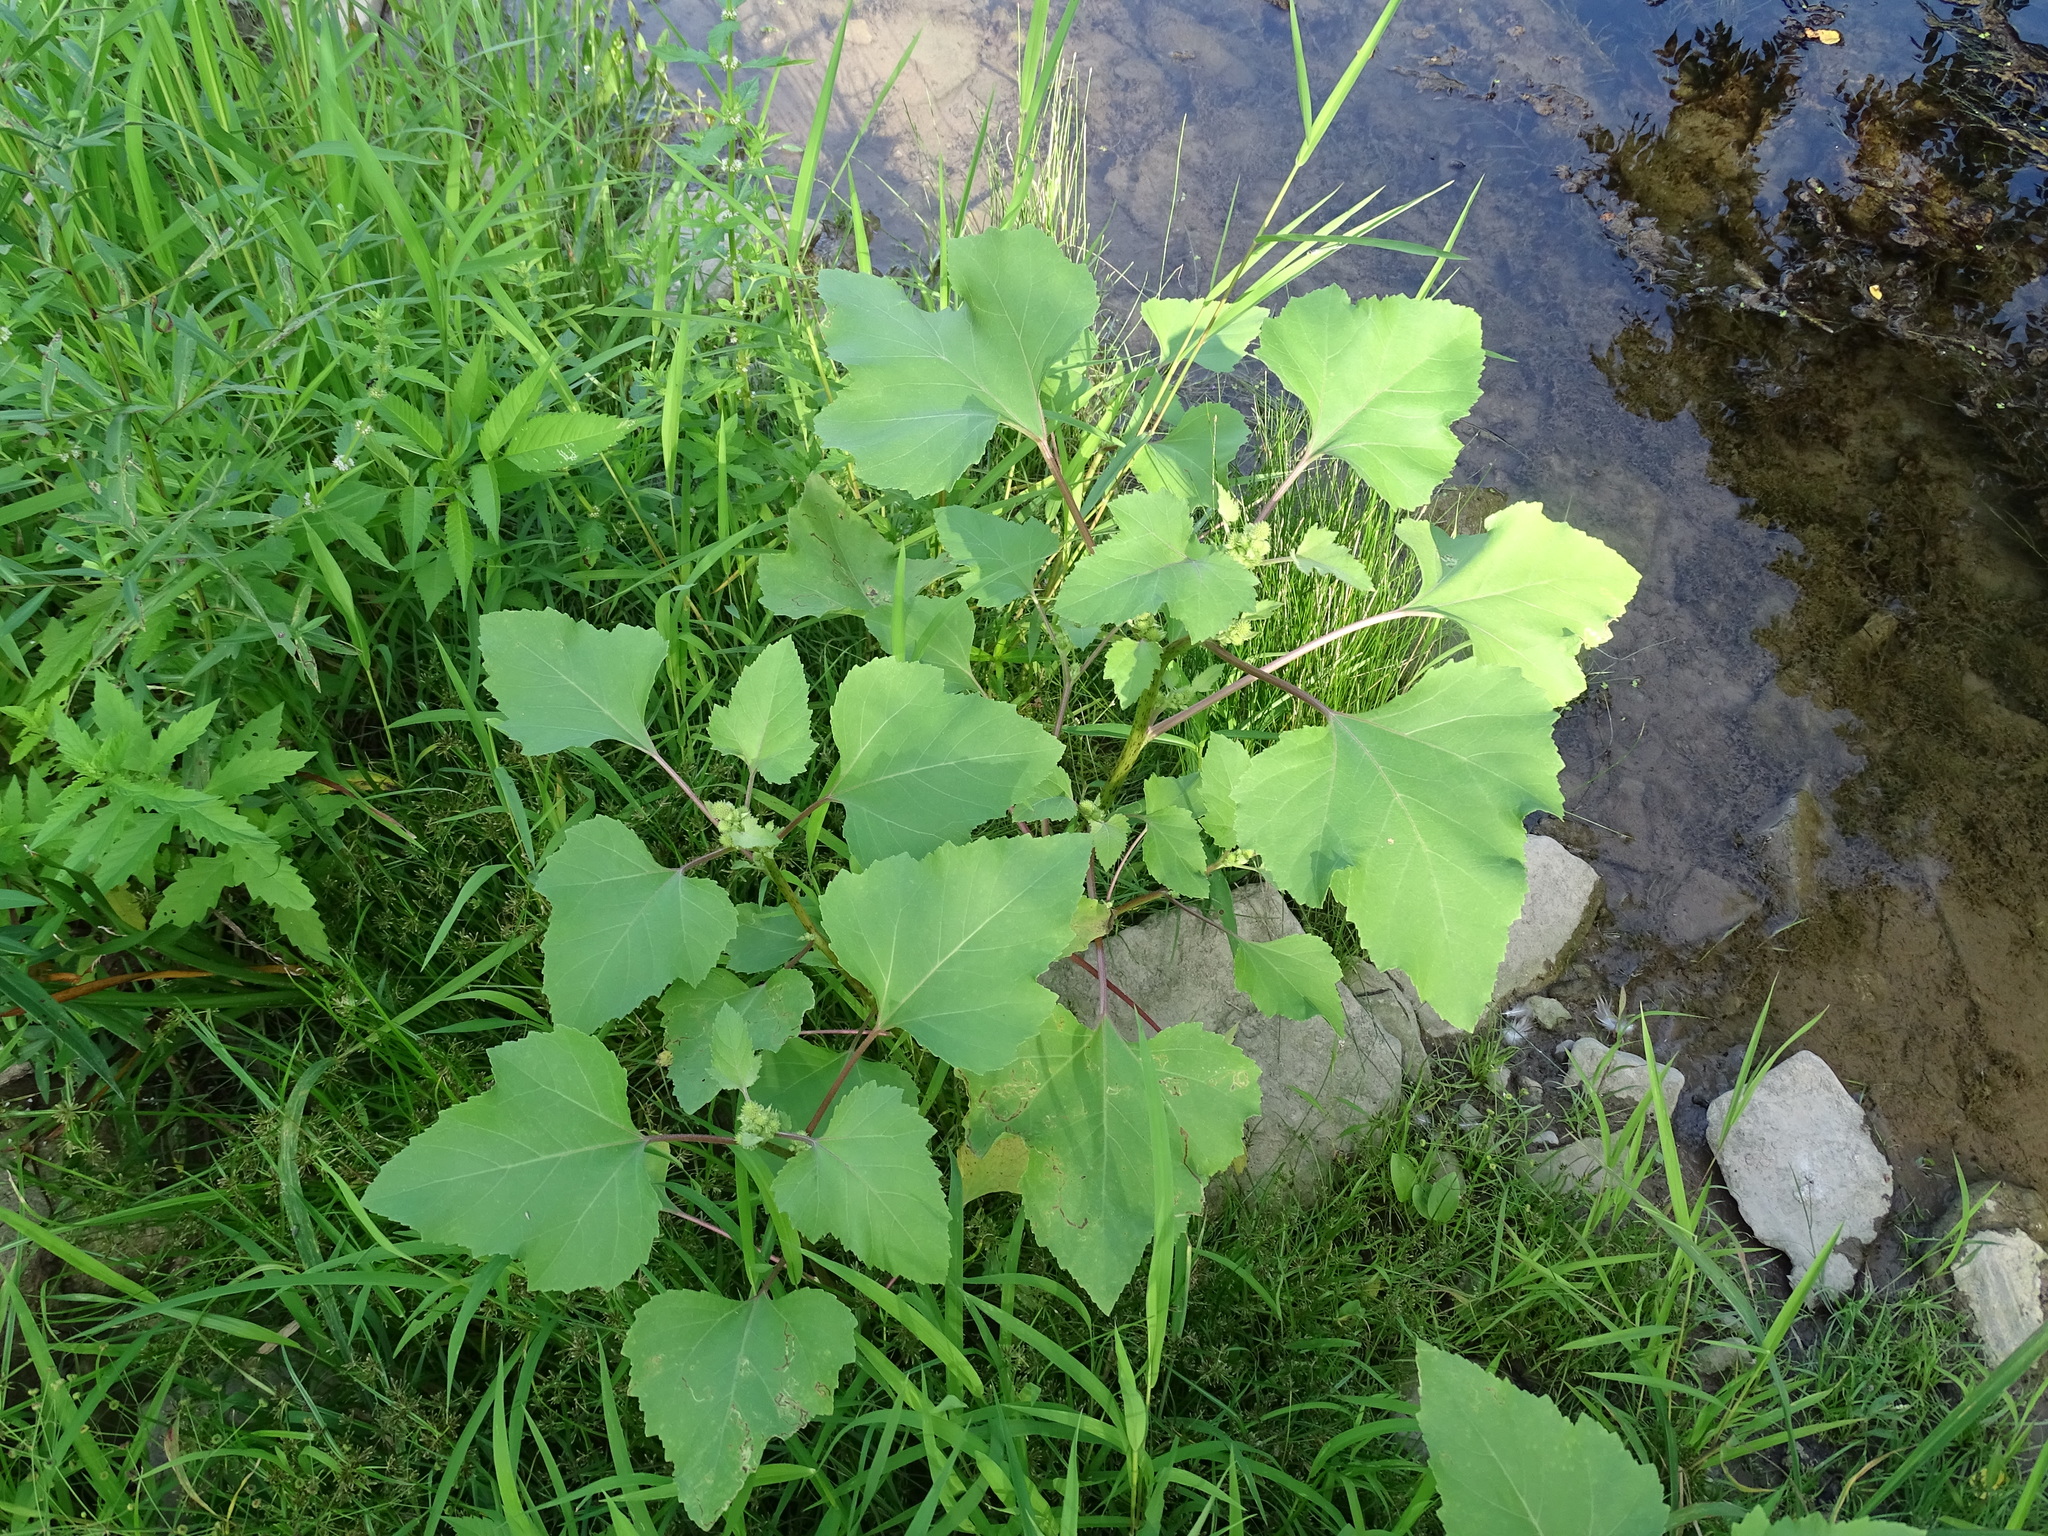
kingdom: Plantae
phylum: Tracheophyta
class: Magnoliopsida
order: Asterales
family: Asteraceae
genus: Xanthium
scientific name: Xanthium strumarium
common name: Rough cocklebur
